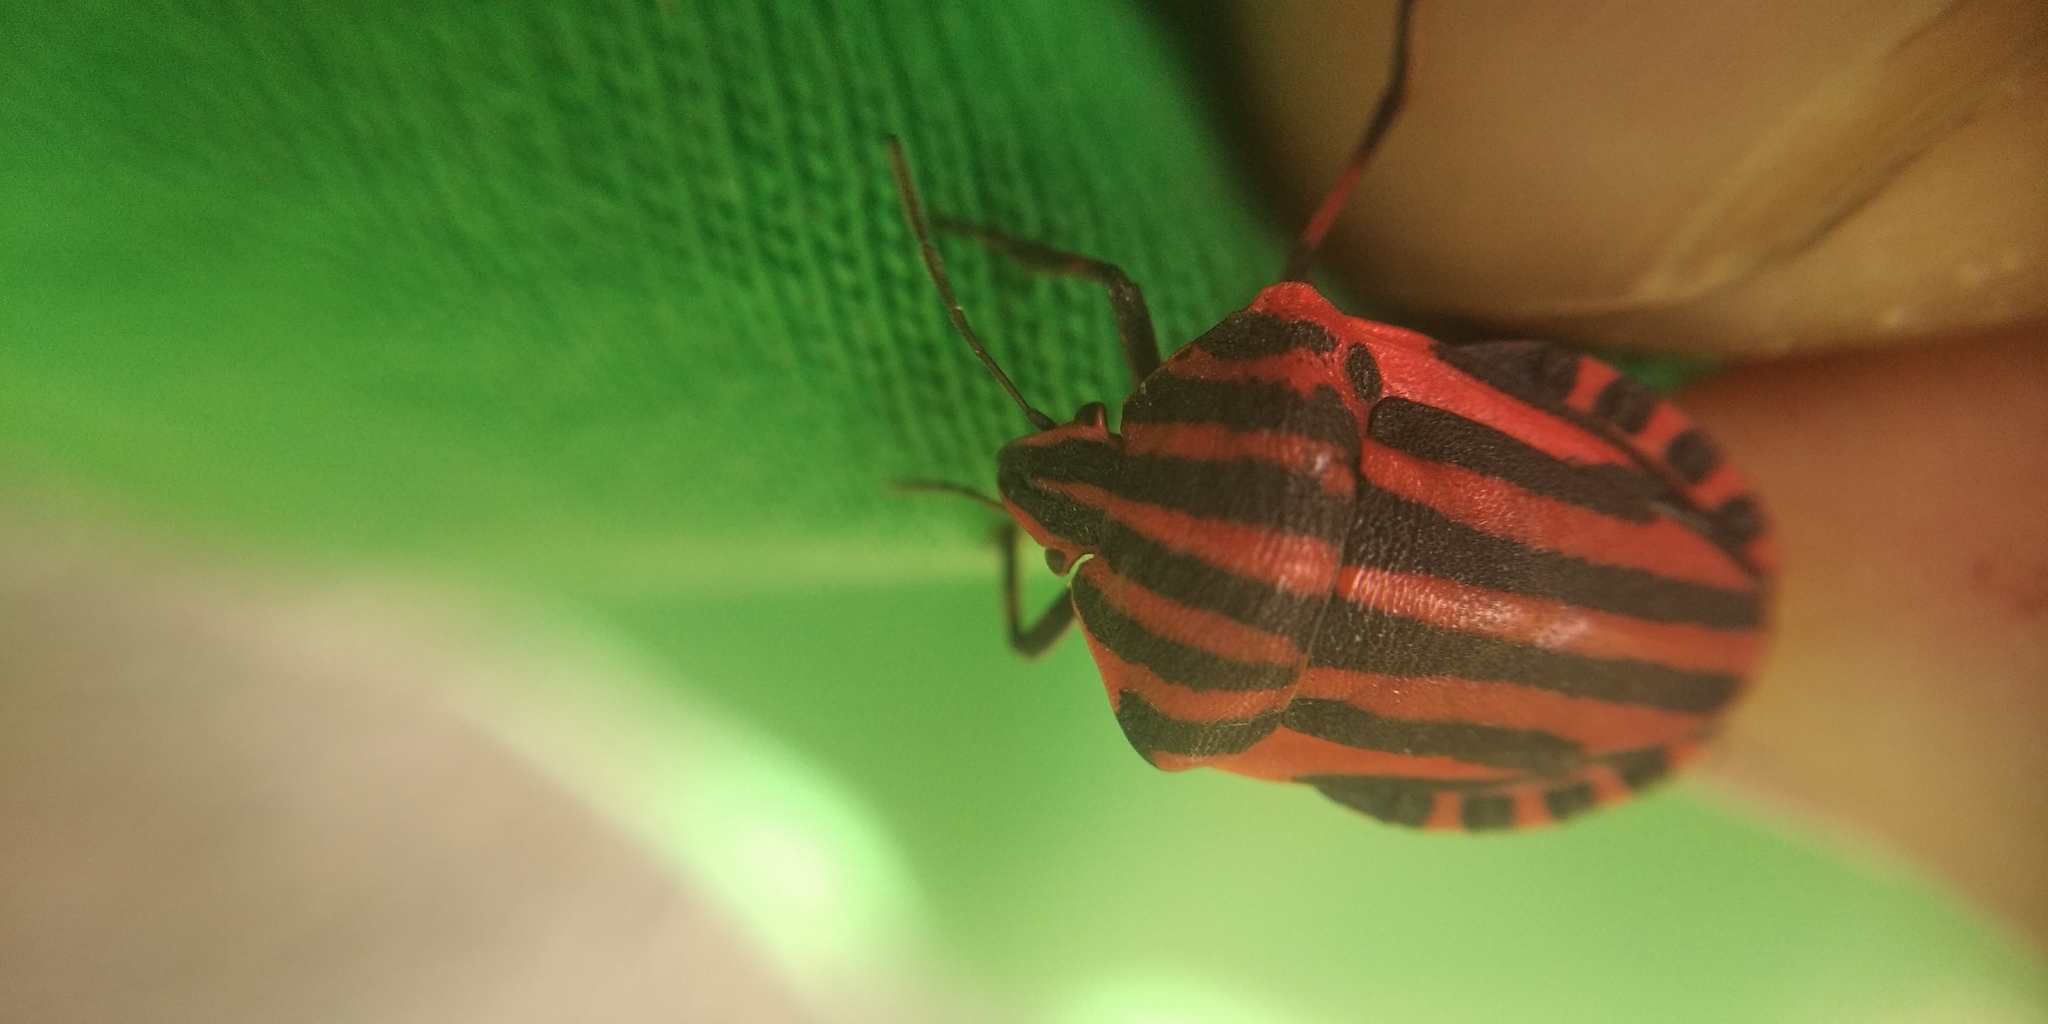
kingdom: Animalia
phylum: Arthropoda
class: Insecta
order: Hemiptera
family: Pentatomidae
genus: Graphosoma
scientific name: Graphosoma italicum
